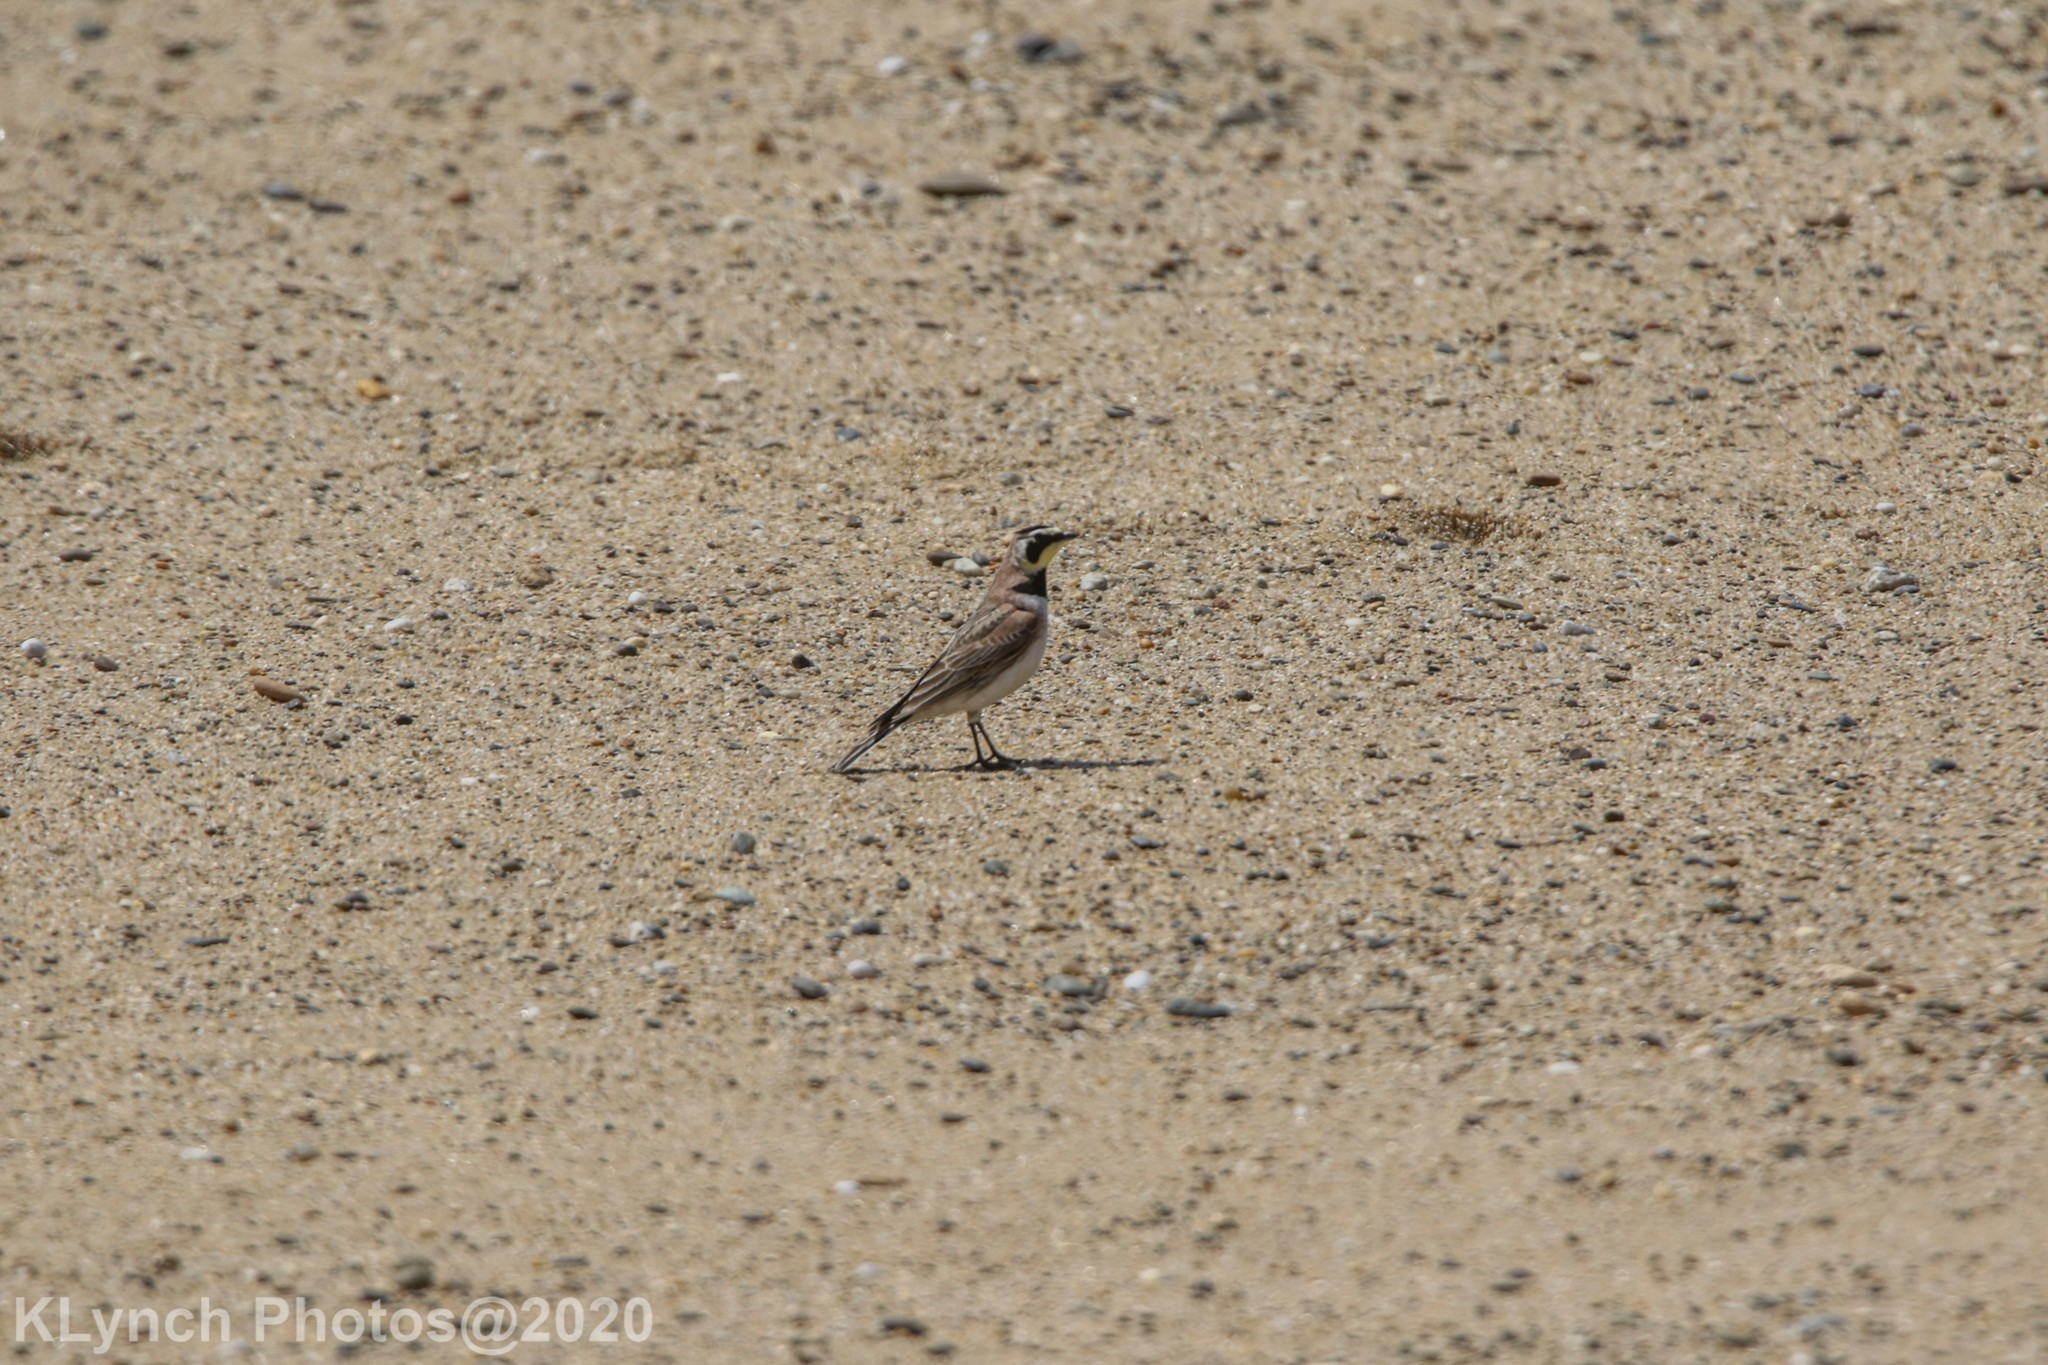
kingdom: Animalia
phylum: Chordata
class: Aves
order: Passeriformes
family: Alaudidae
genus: Eremophila
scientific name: Eremophila alpestris
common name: Horned lark
